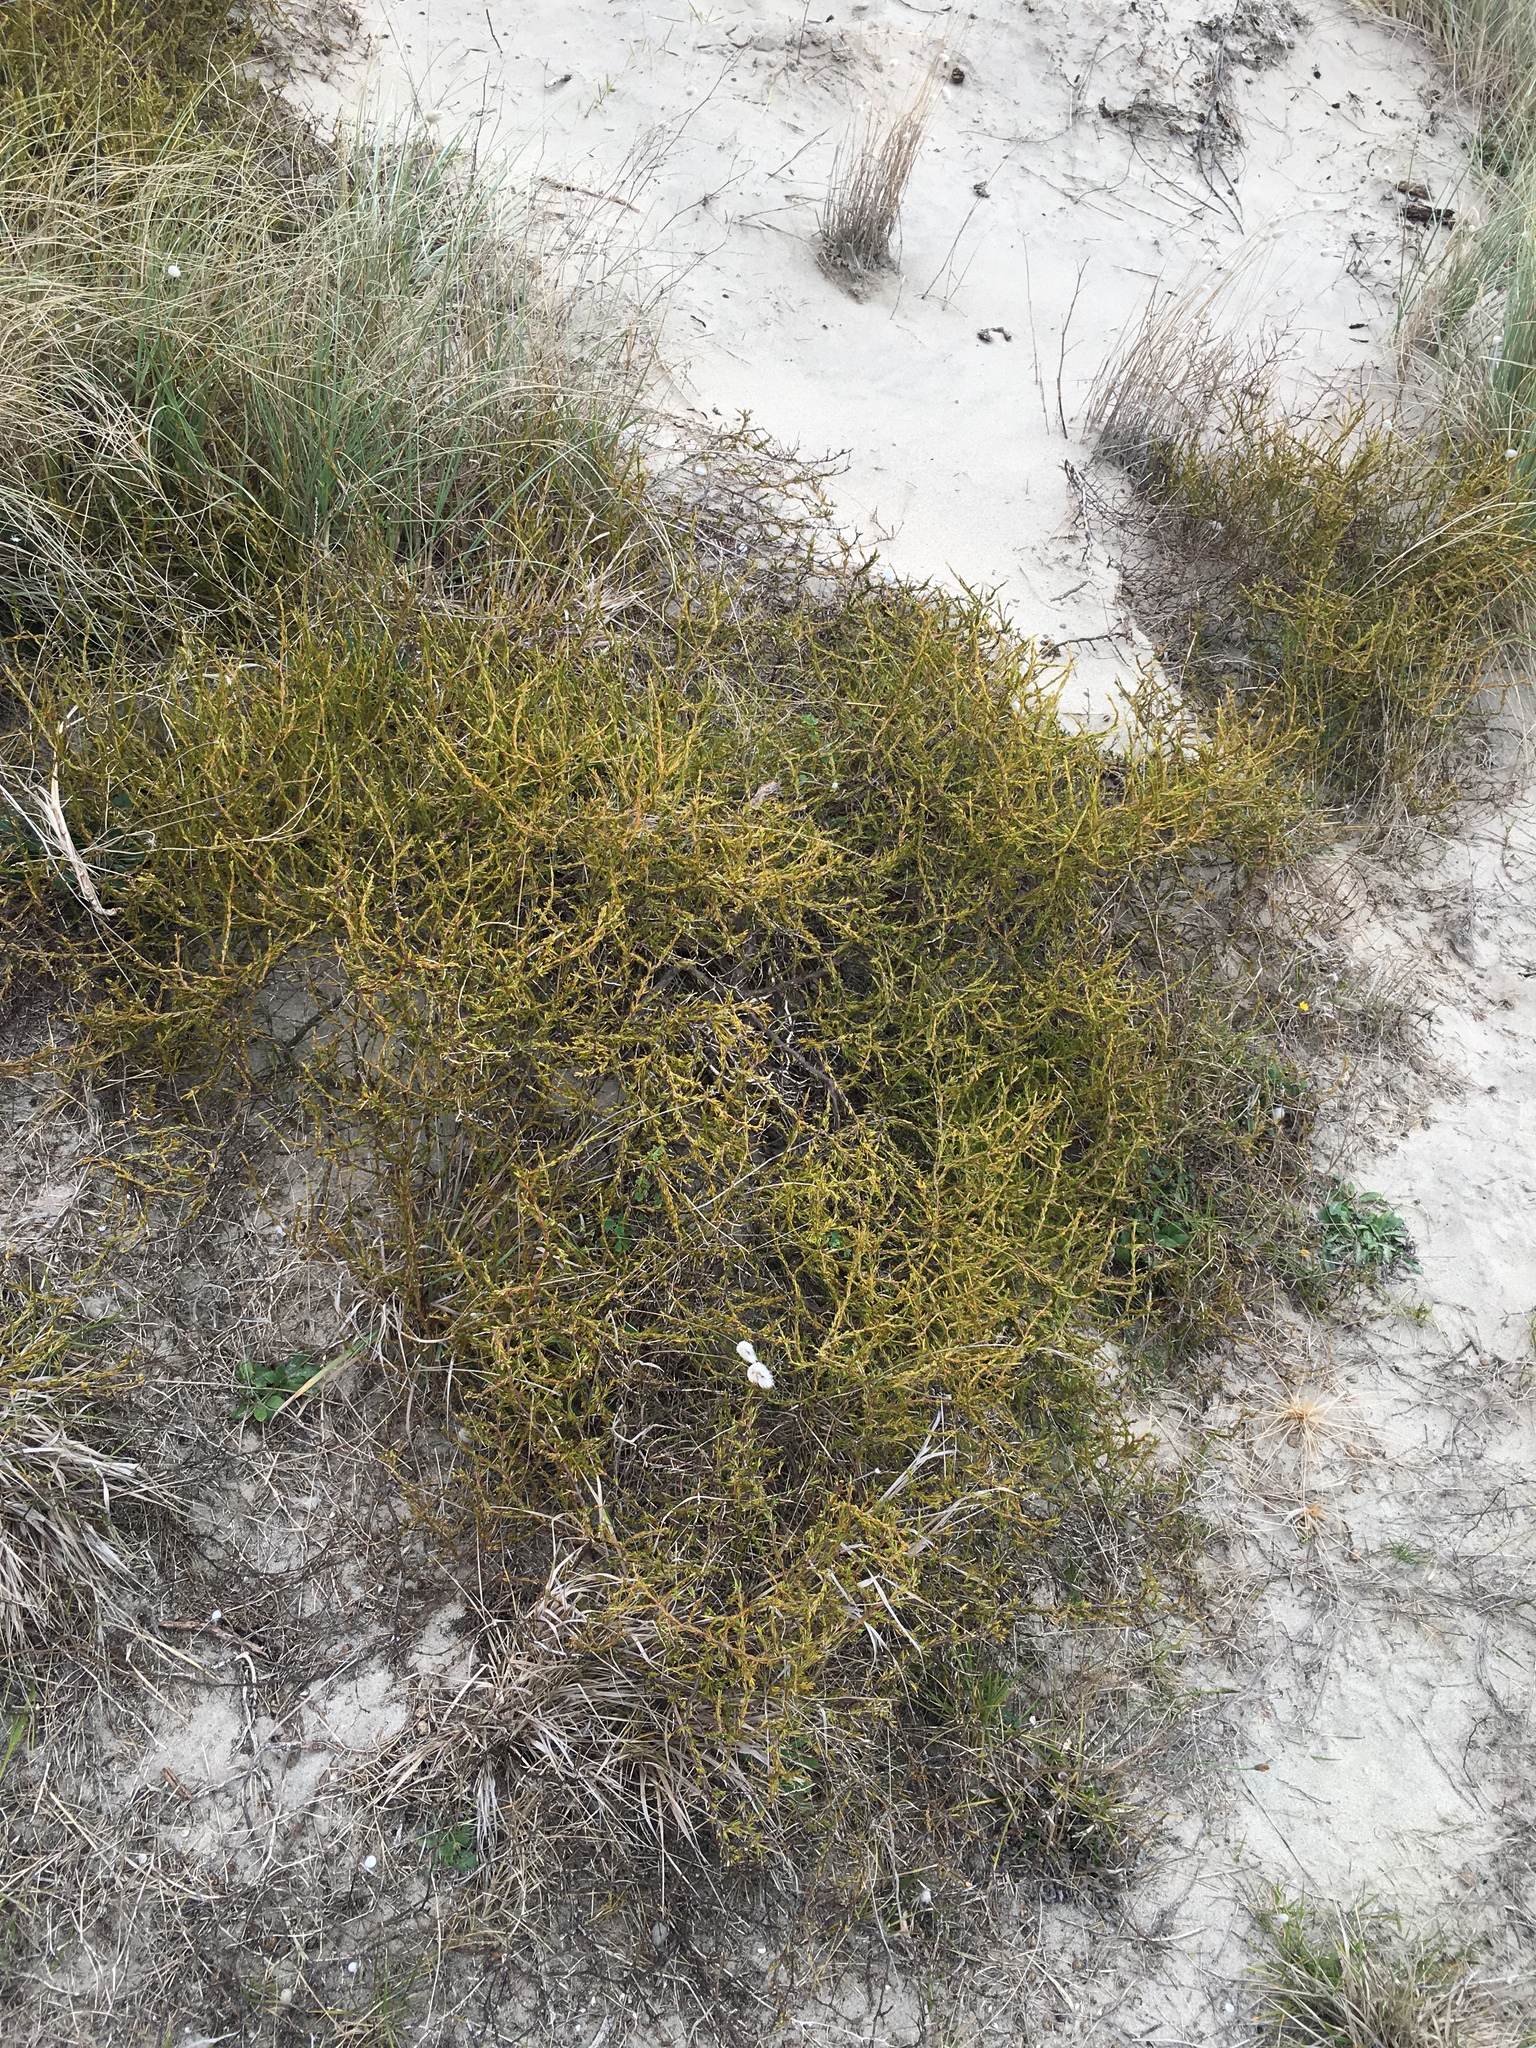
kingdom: Plantae
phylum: Tracheophyta
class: Magnoliopsida
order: Gentianales
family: Rubiaceae
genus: Coprosma
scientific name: Coprosma acerosa
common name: Sand coprosma
